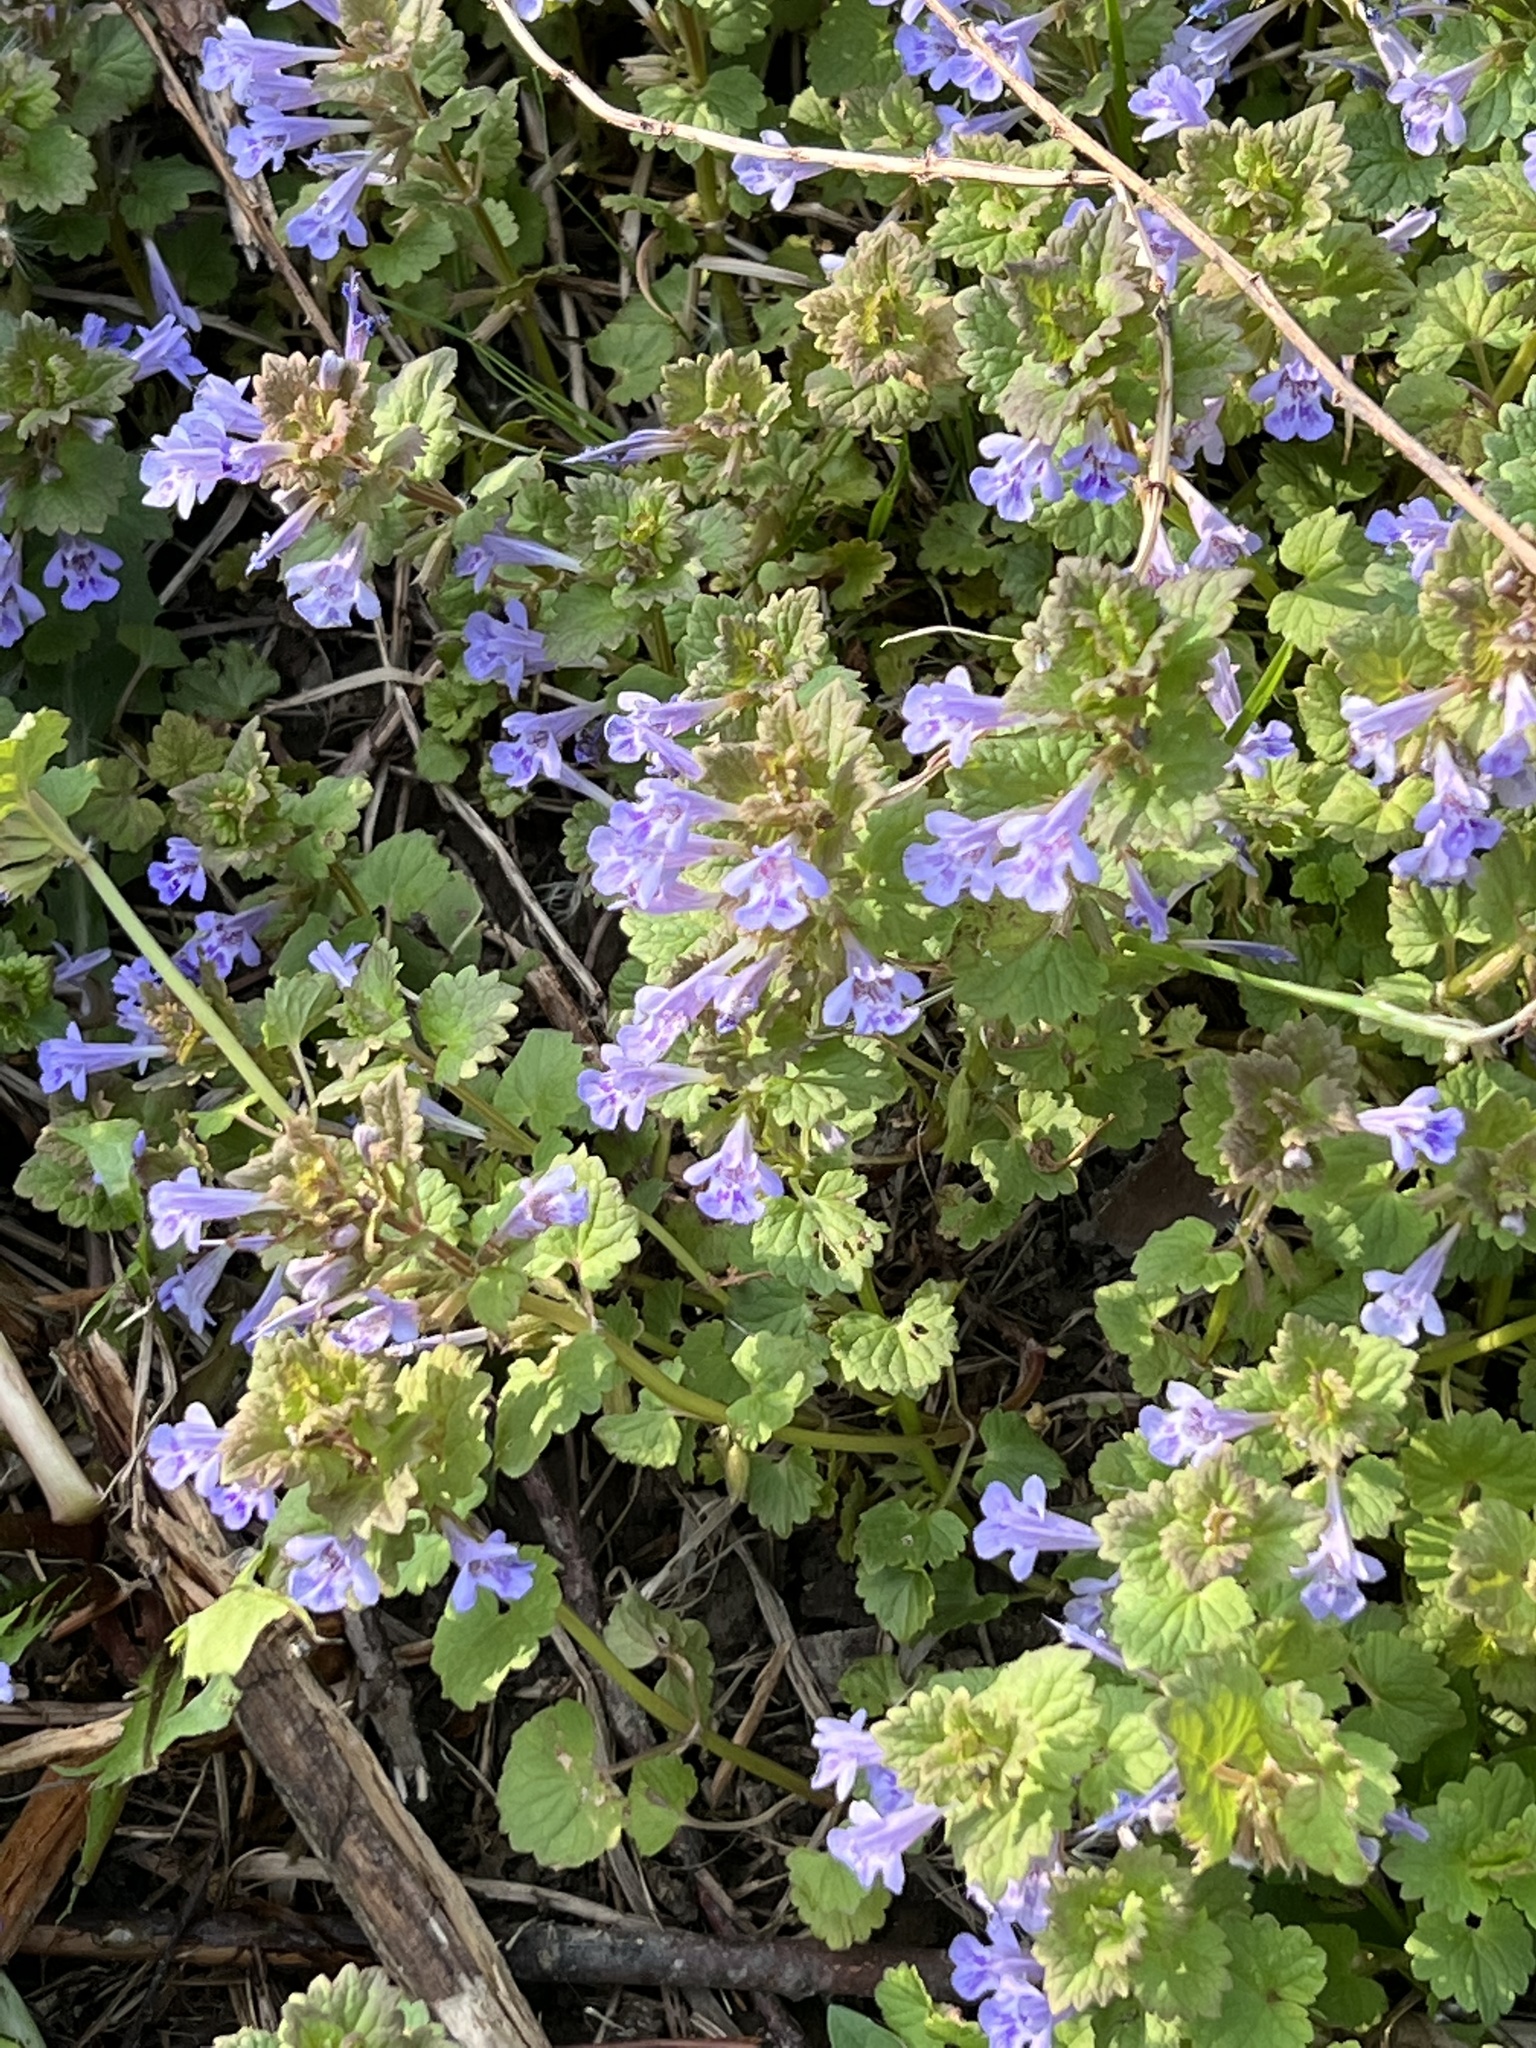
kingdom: Plantae
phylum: Tracheophyta
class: Magnoliopsida
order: Lamiales
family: Lamiaceae
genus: Glechoma
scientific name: Glechoma hederacea
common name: Ground ivy
